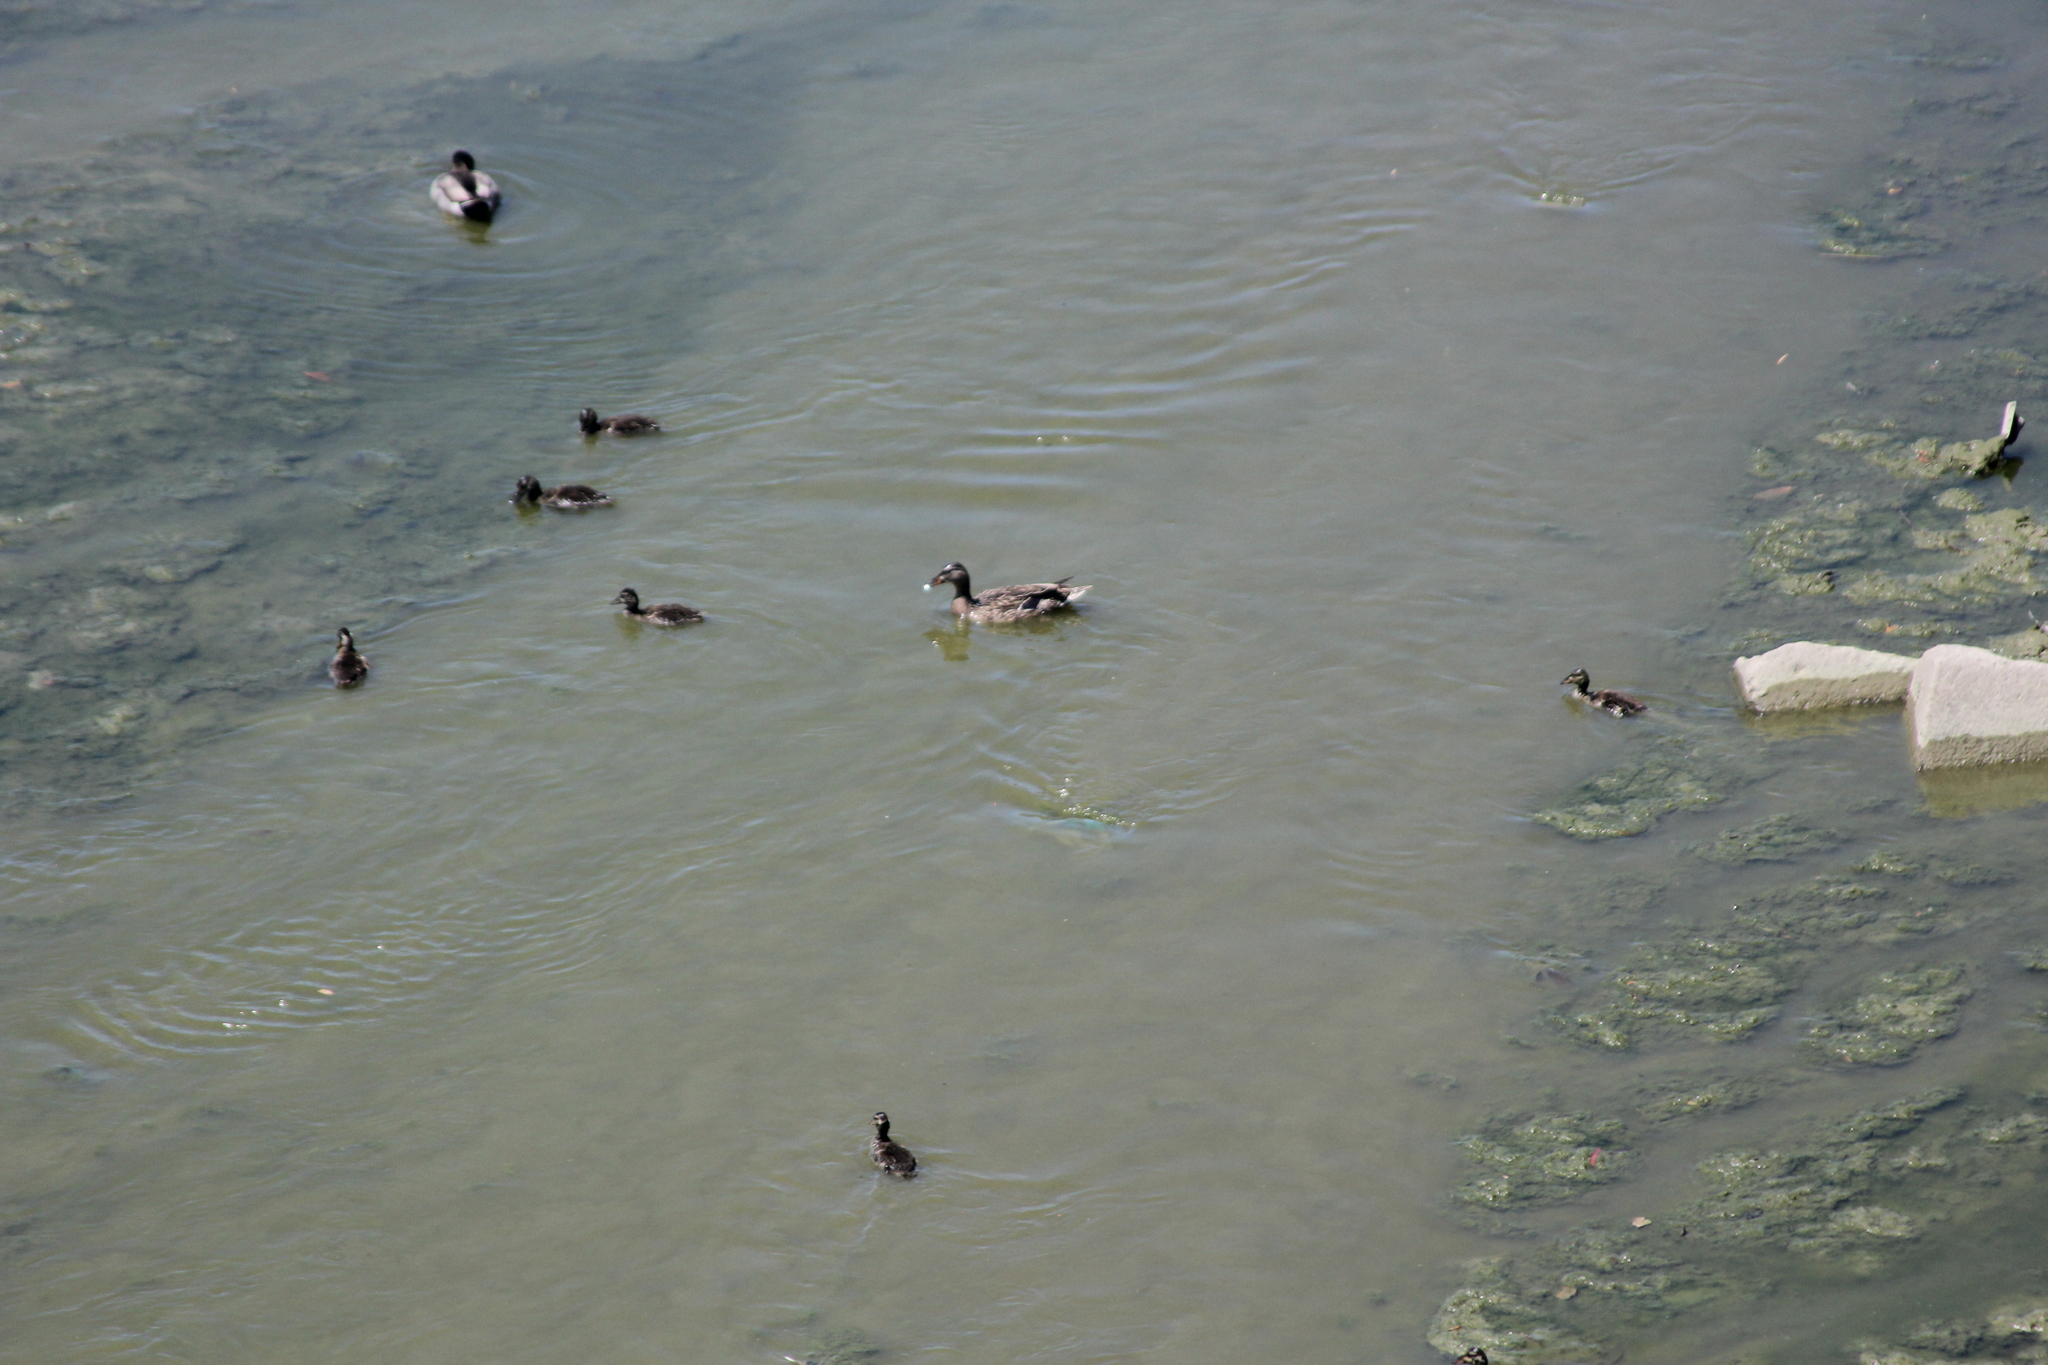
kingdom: Animalia
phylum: Chordata
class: Aves
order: Anseriformes
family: Anatidae
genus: Anas
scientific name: Anas platyrhynchos
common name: Mallard
